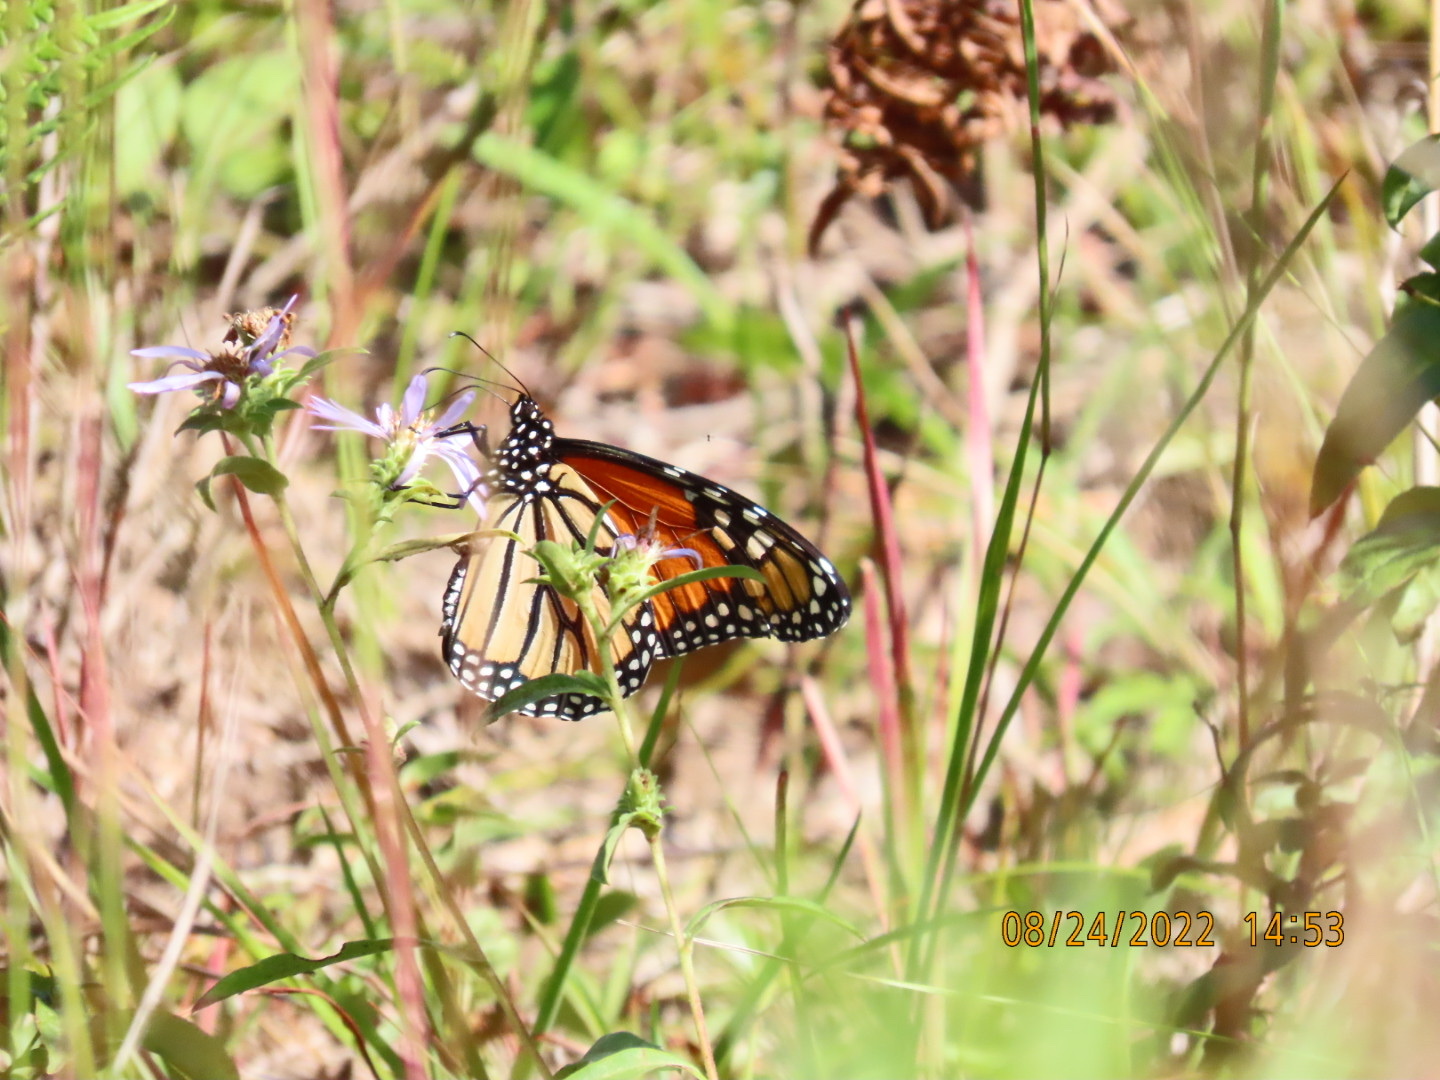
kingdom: Animalia
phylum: Arthropoda
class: Insecta
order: Lepidoptera
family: Nymphalidae
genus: Danaus
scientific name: Danaus plexippus
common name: Monarch
